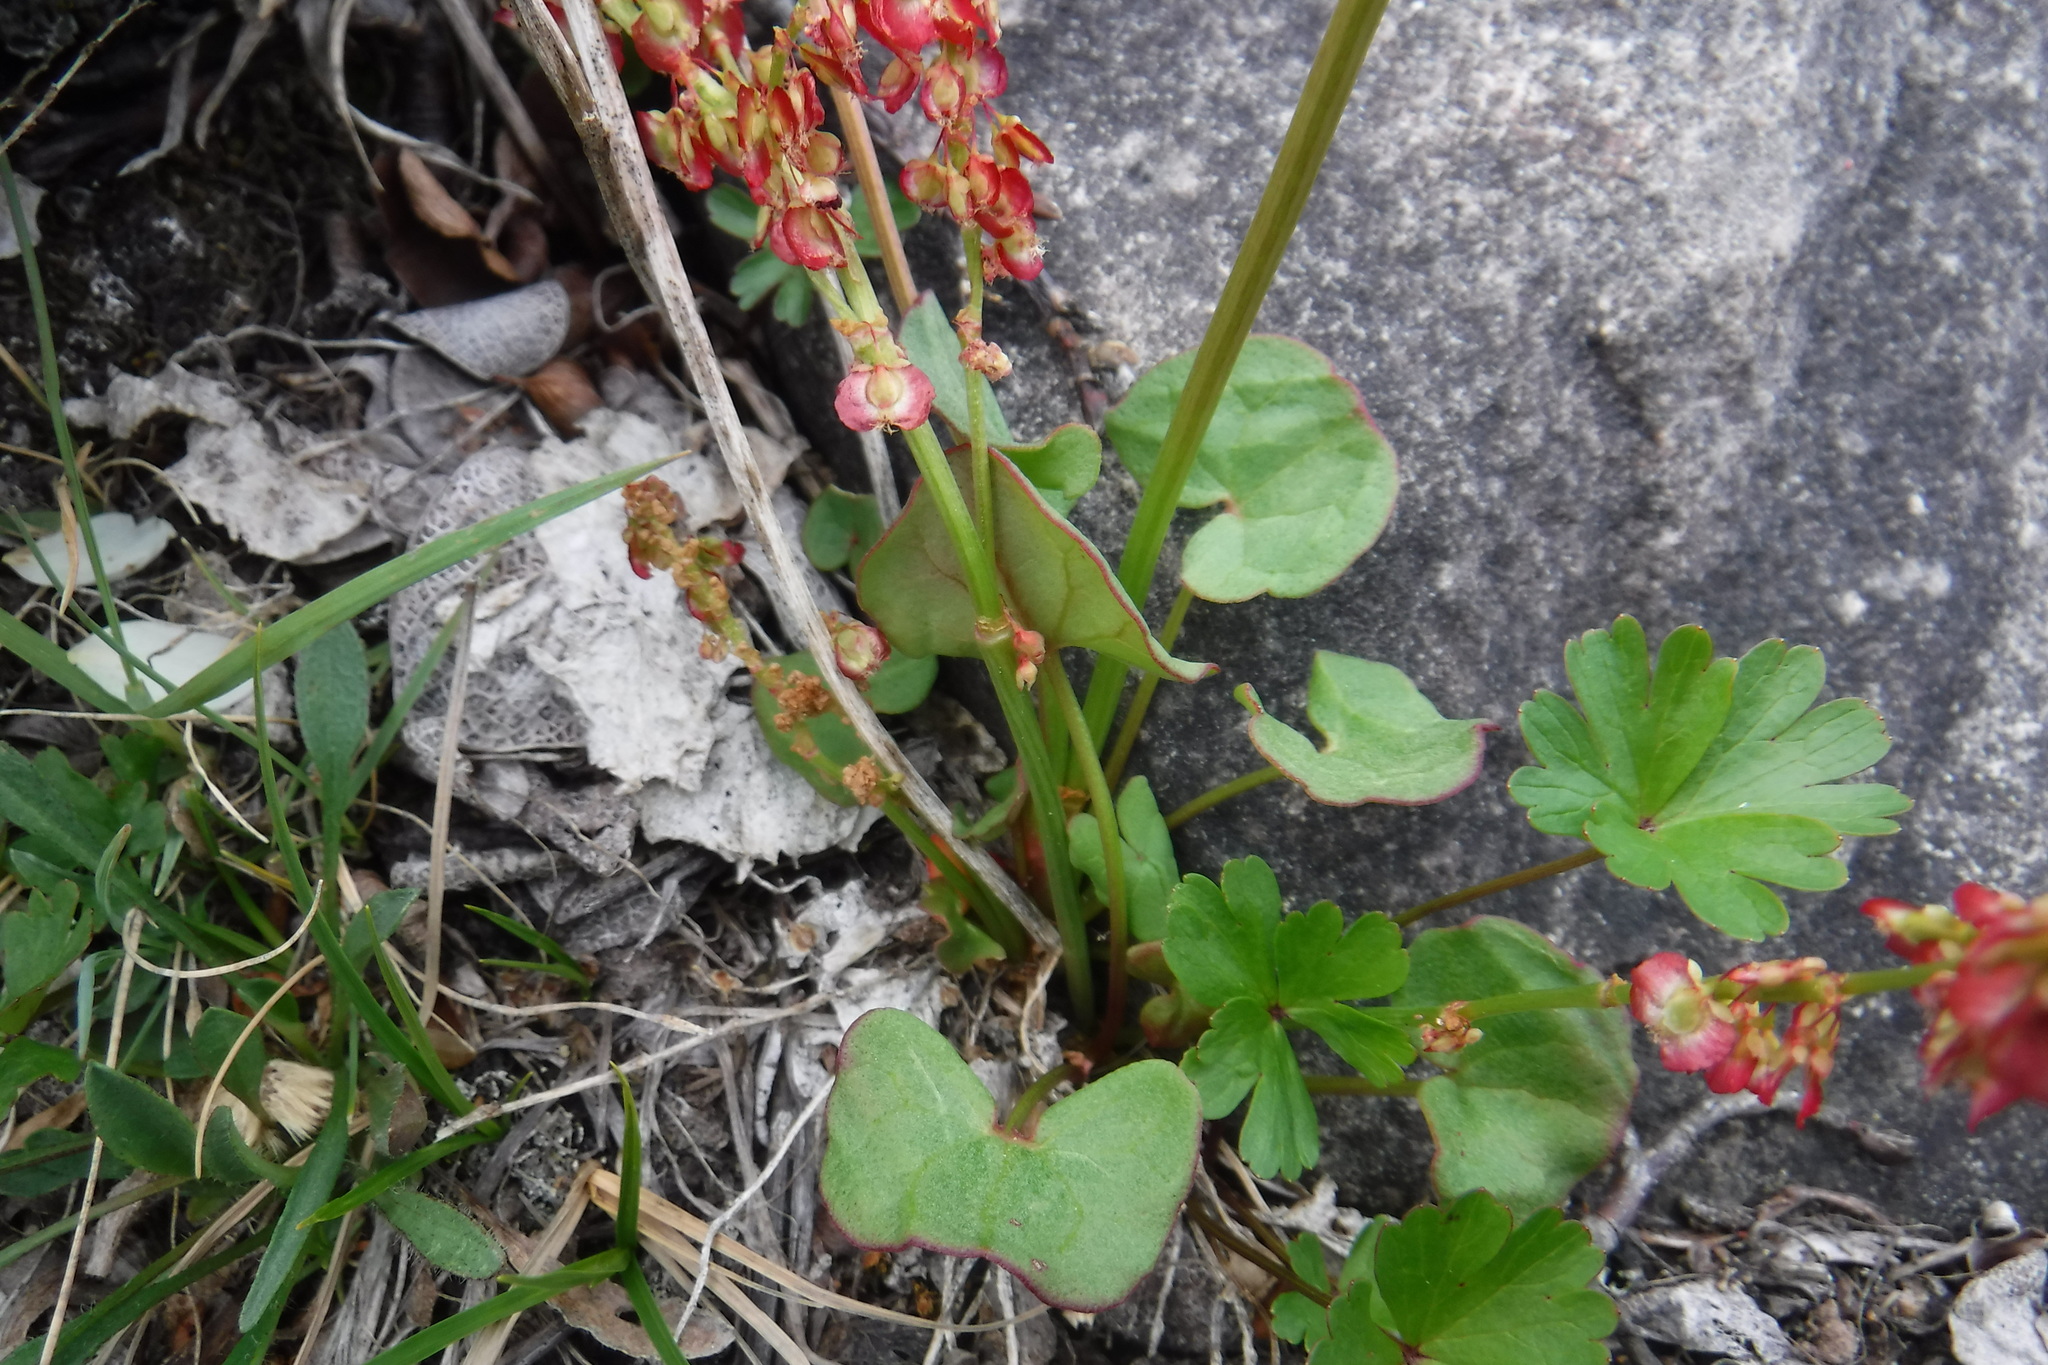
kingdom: Plantae
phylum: Tracheophyta
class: Magnoliopsida
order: Caryophyllales
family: Polygonaceae
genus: Oxyria
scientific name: Oxyria digyna
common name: Alpine mountain-sorrel
